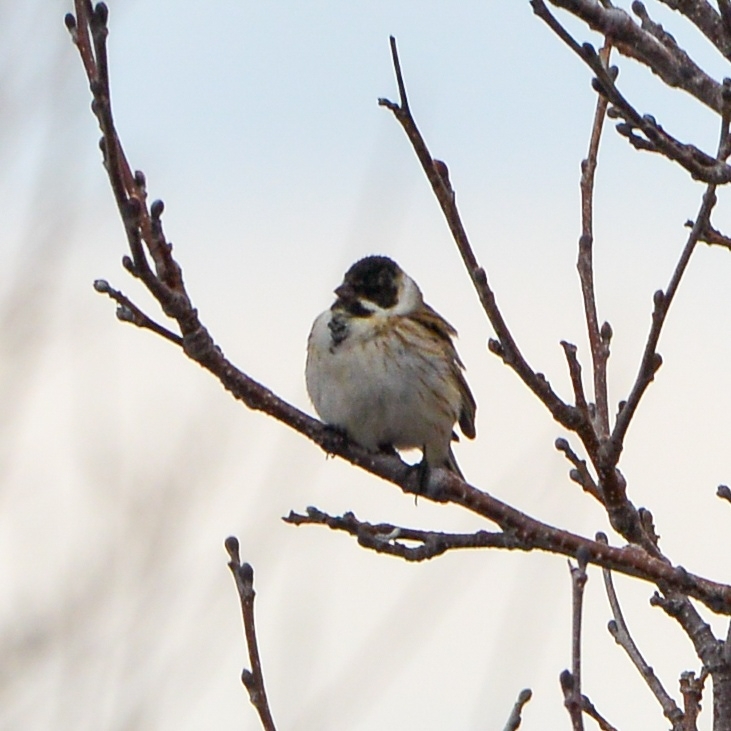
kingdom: Animalia
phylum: Chordata
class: Aves
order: Passeriformes
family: Emberizidae
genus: Emberiza
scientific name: Emberiza schoeniclus
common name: Reed bunting
